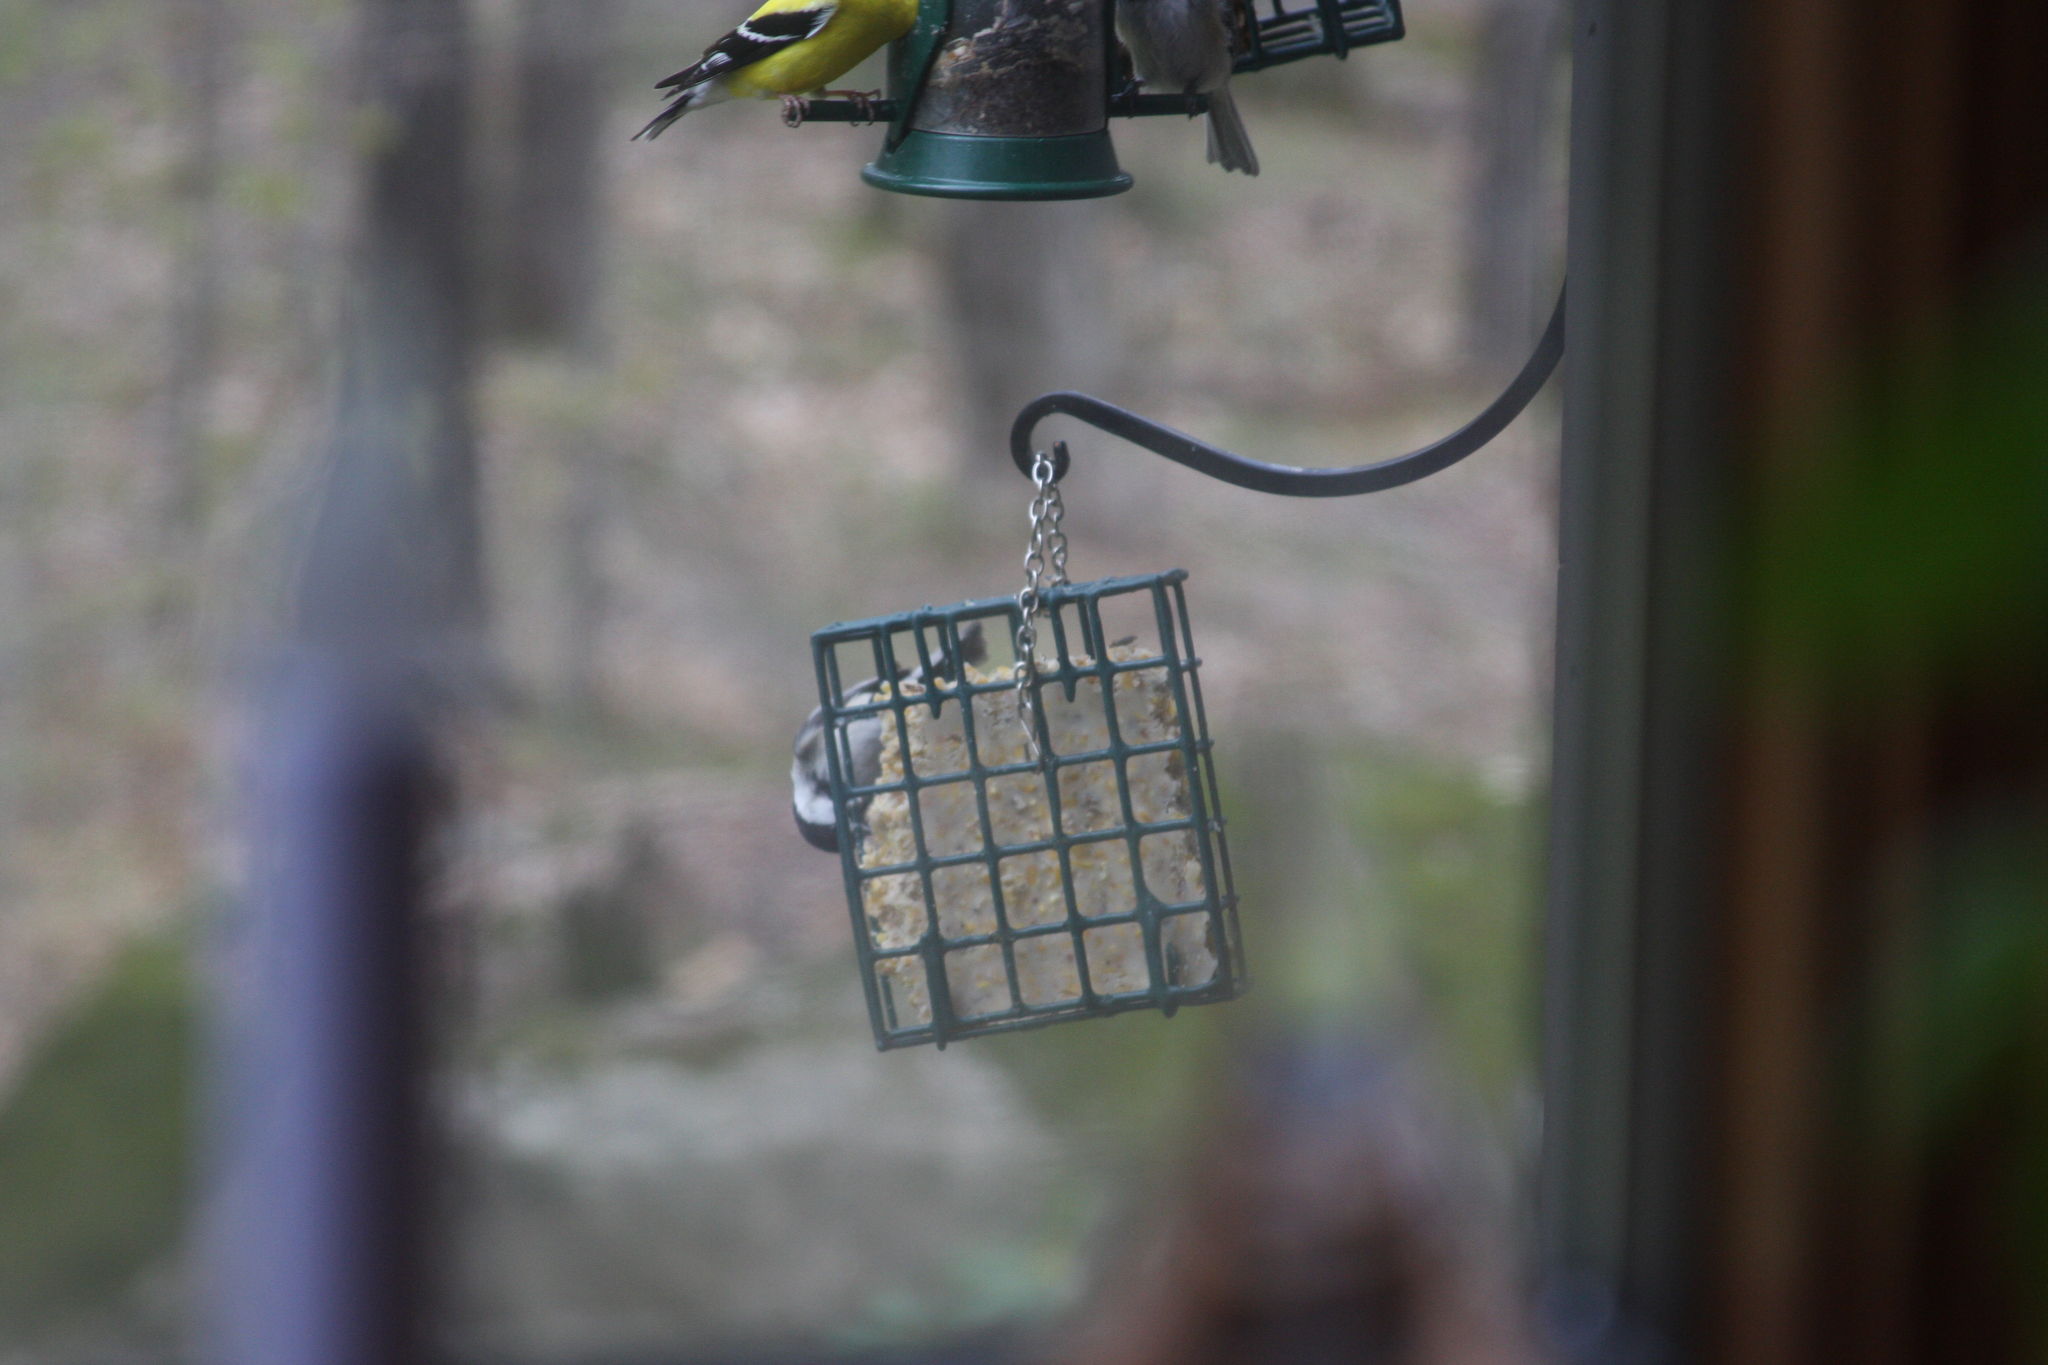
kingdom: Animalia
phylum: Chordata
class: Aves
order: Passeriformes
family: Paridae
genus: Poecile
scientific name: Poecile atricapillus
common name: Black-capped chickadee
